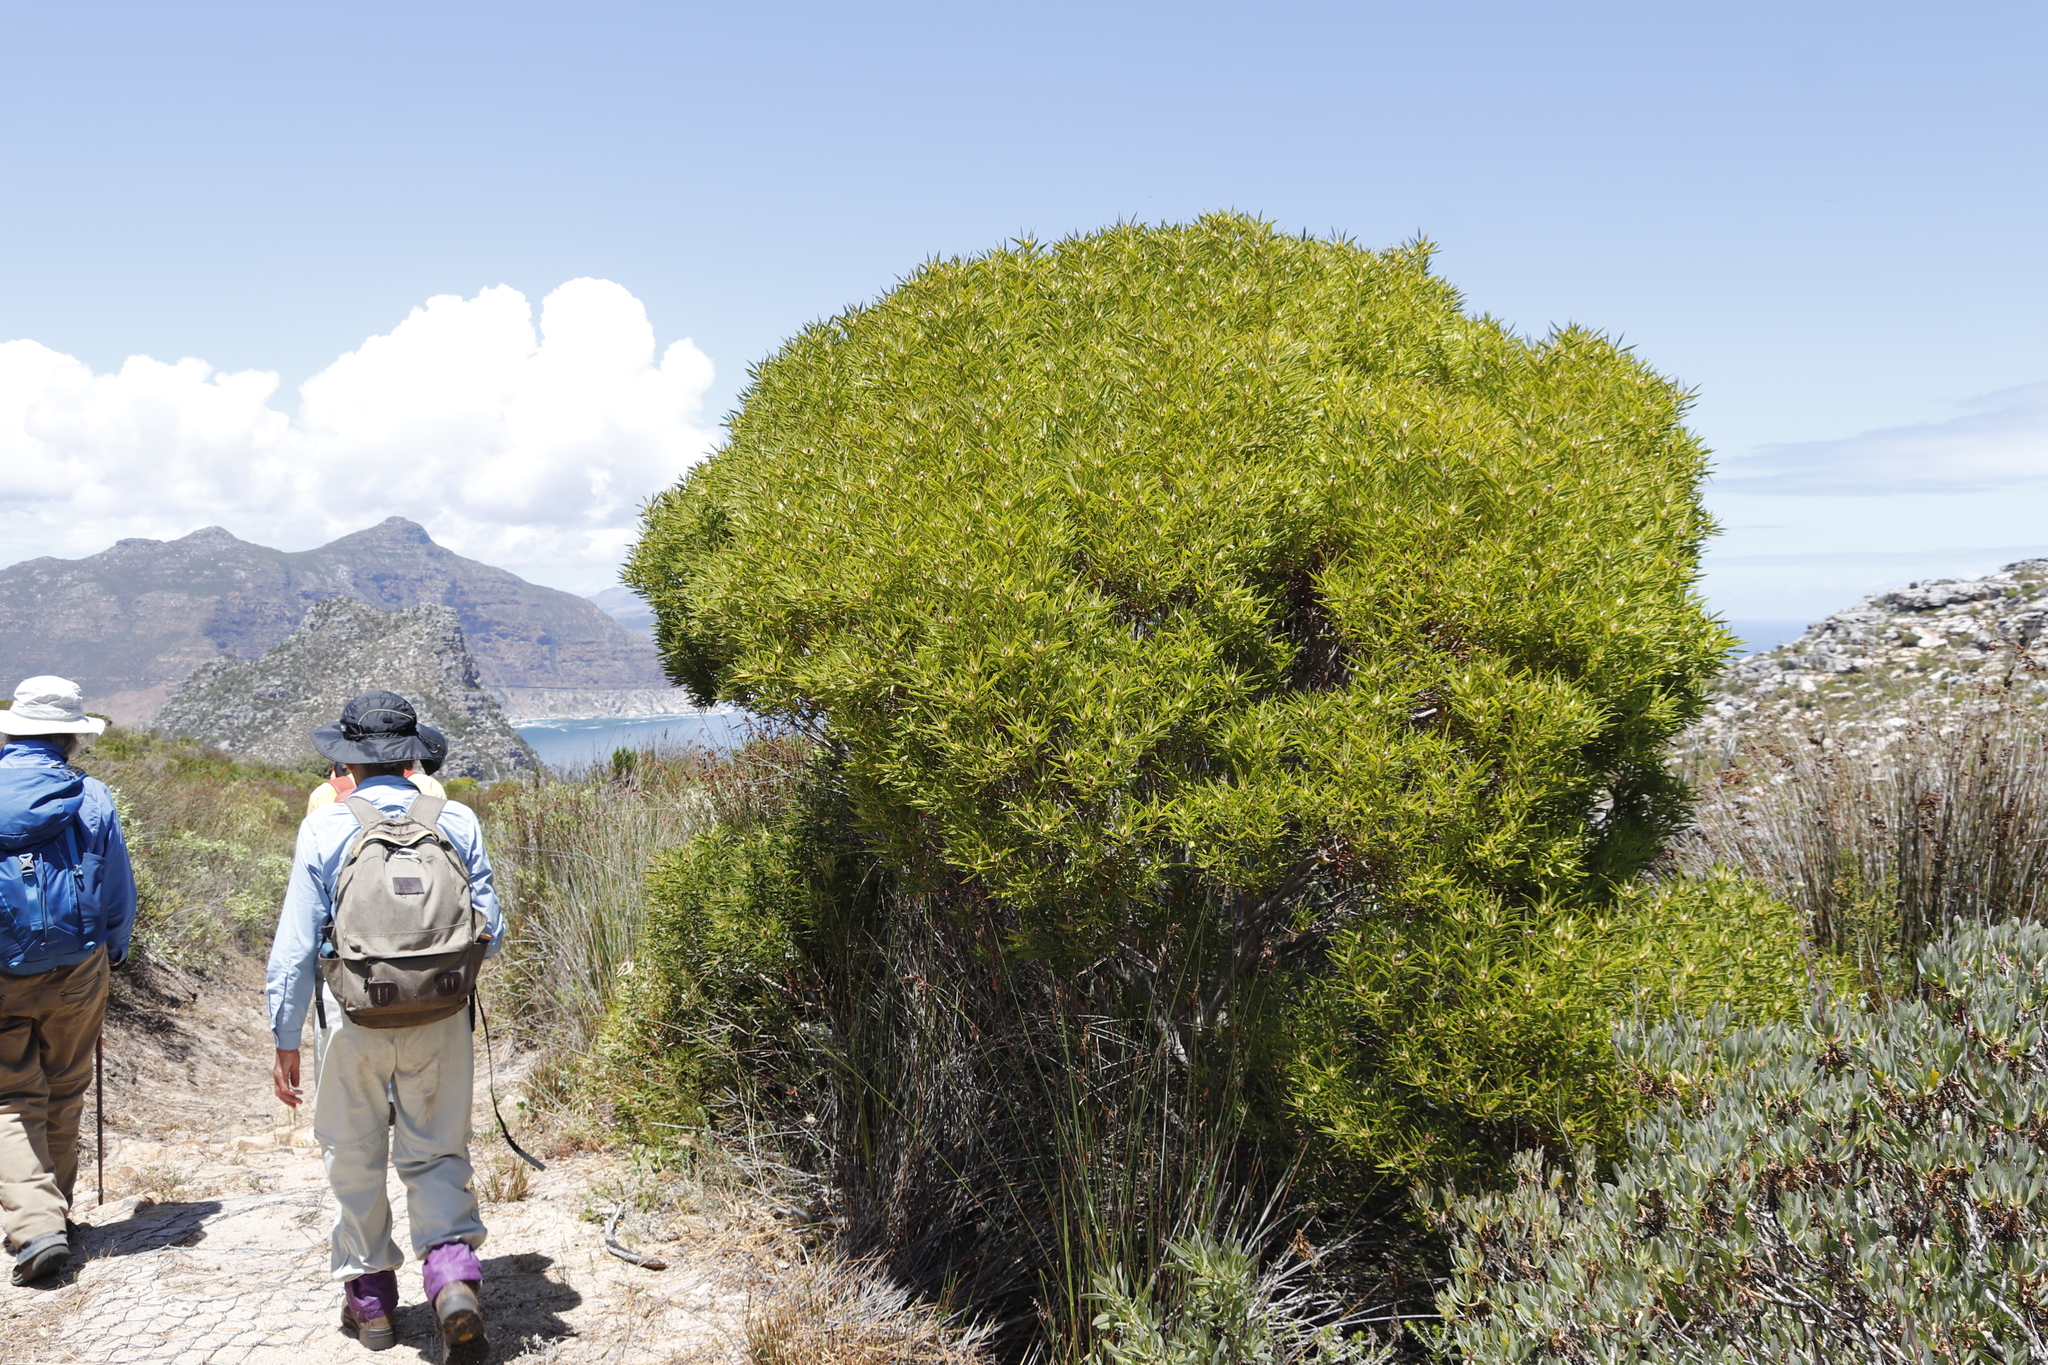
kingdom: Plantae
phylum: Tracheophyta
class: Magnoliopsida
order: Proteales
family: Proteaceae
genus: Leucadendron
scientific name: Leucadendron coniferum
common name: Dune conebush
